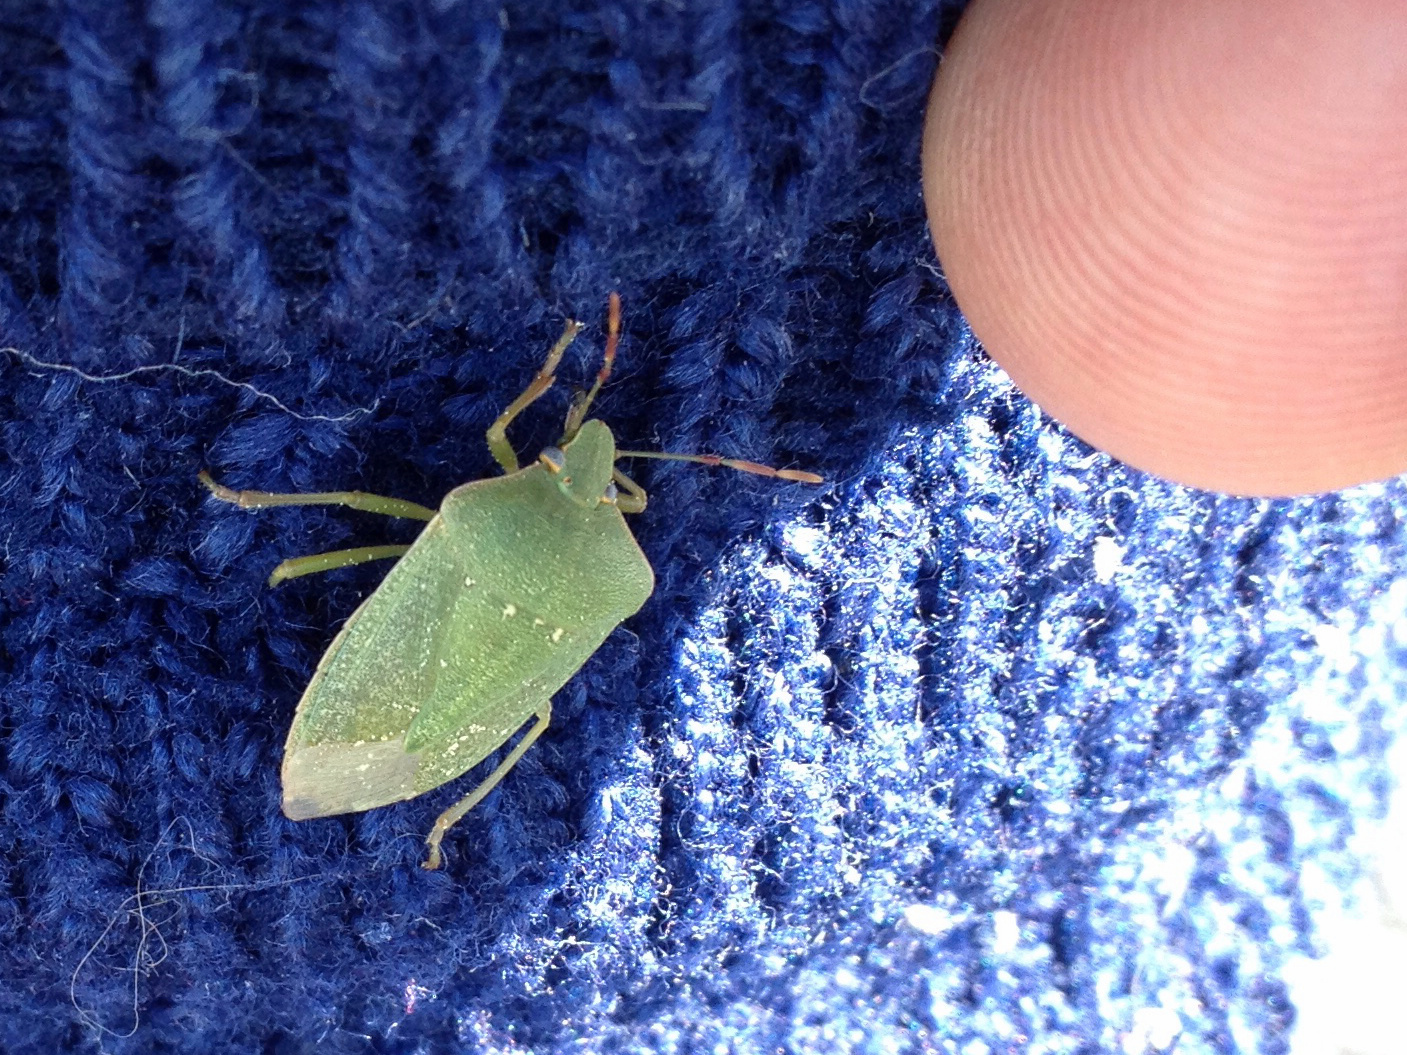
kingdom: Animalia
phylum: Arthropoda
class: Insecta
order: Hemiptera
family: Pentatomidae
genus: Nezara
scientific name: Nezara viridula
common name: Southern green stink bug
